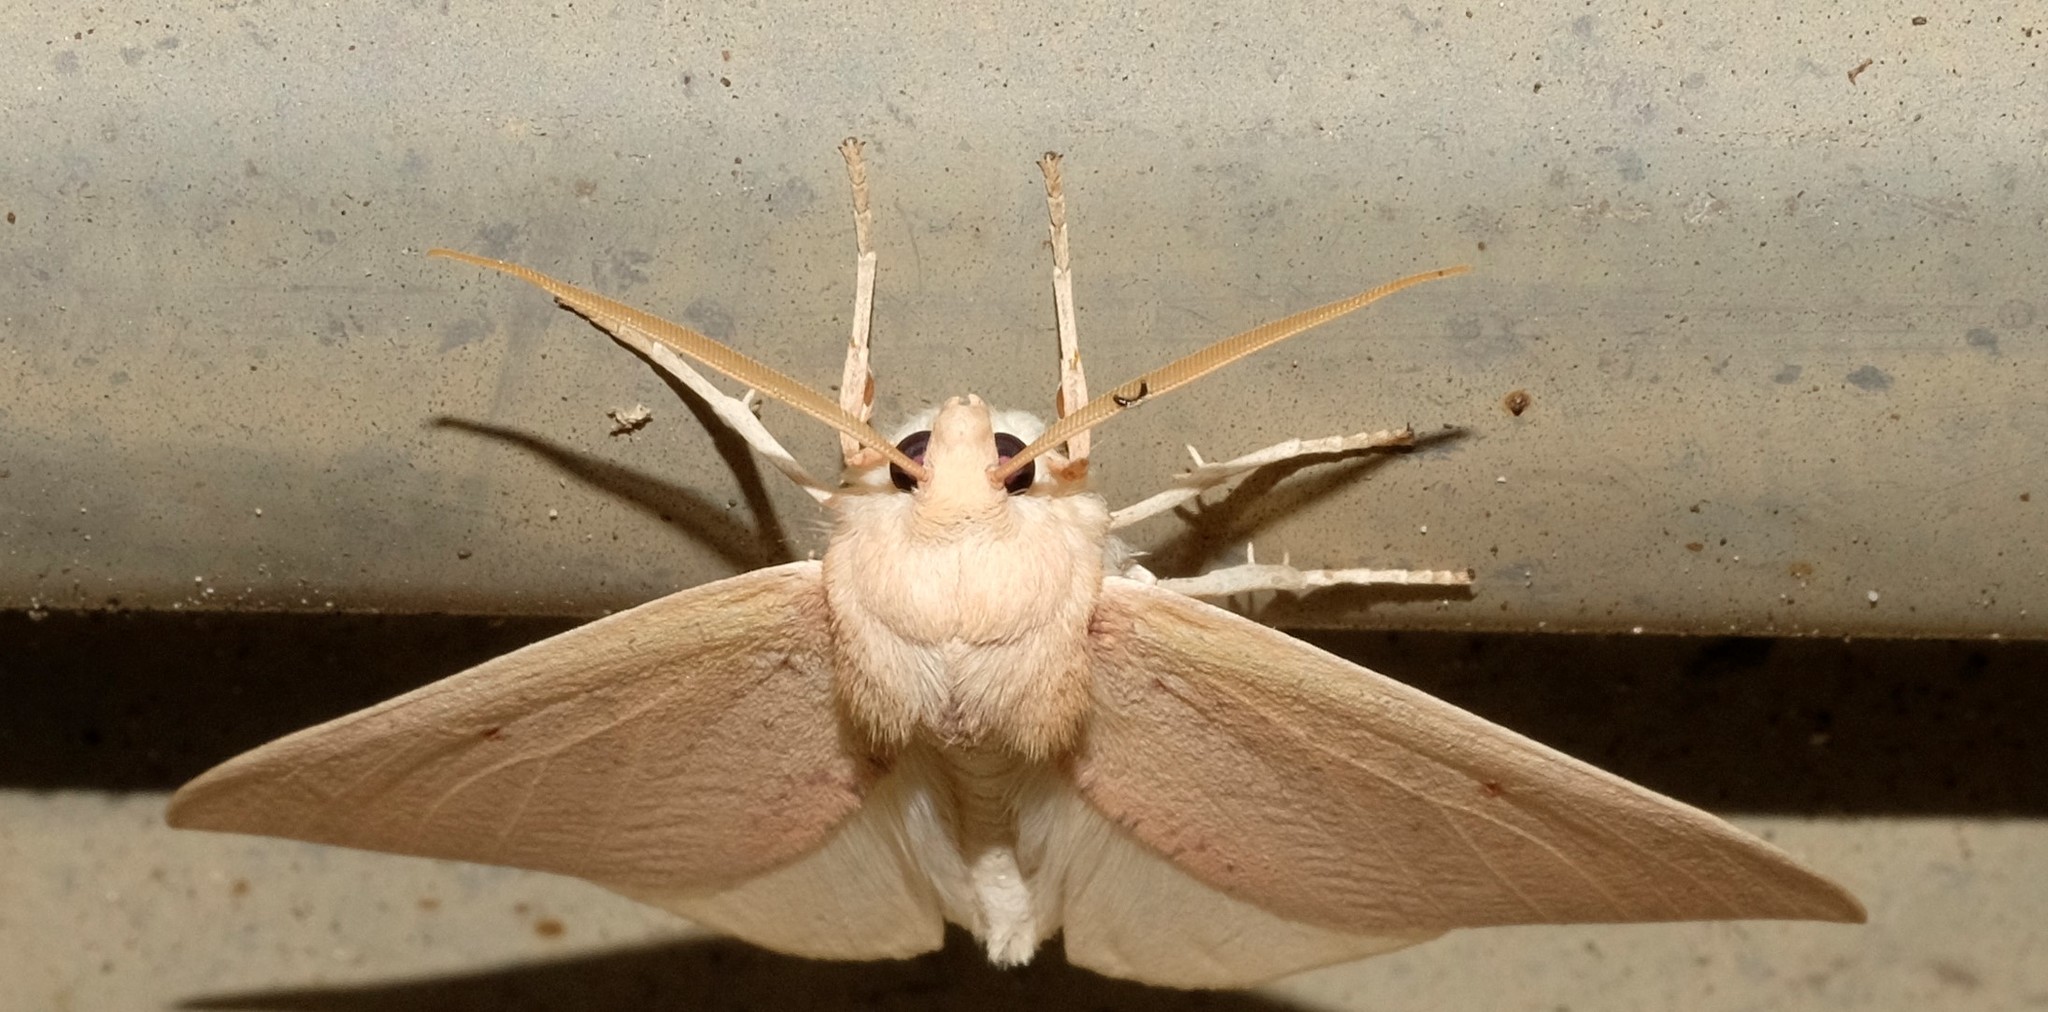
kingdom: Animalia
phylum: Arthropoda
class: Insecta
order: Lepidoptera
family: Geometridae
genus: Plesanemma
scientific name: Plesanemma fucata
